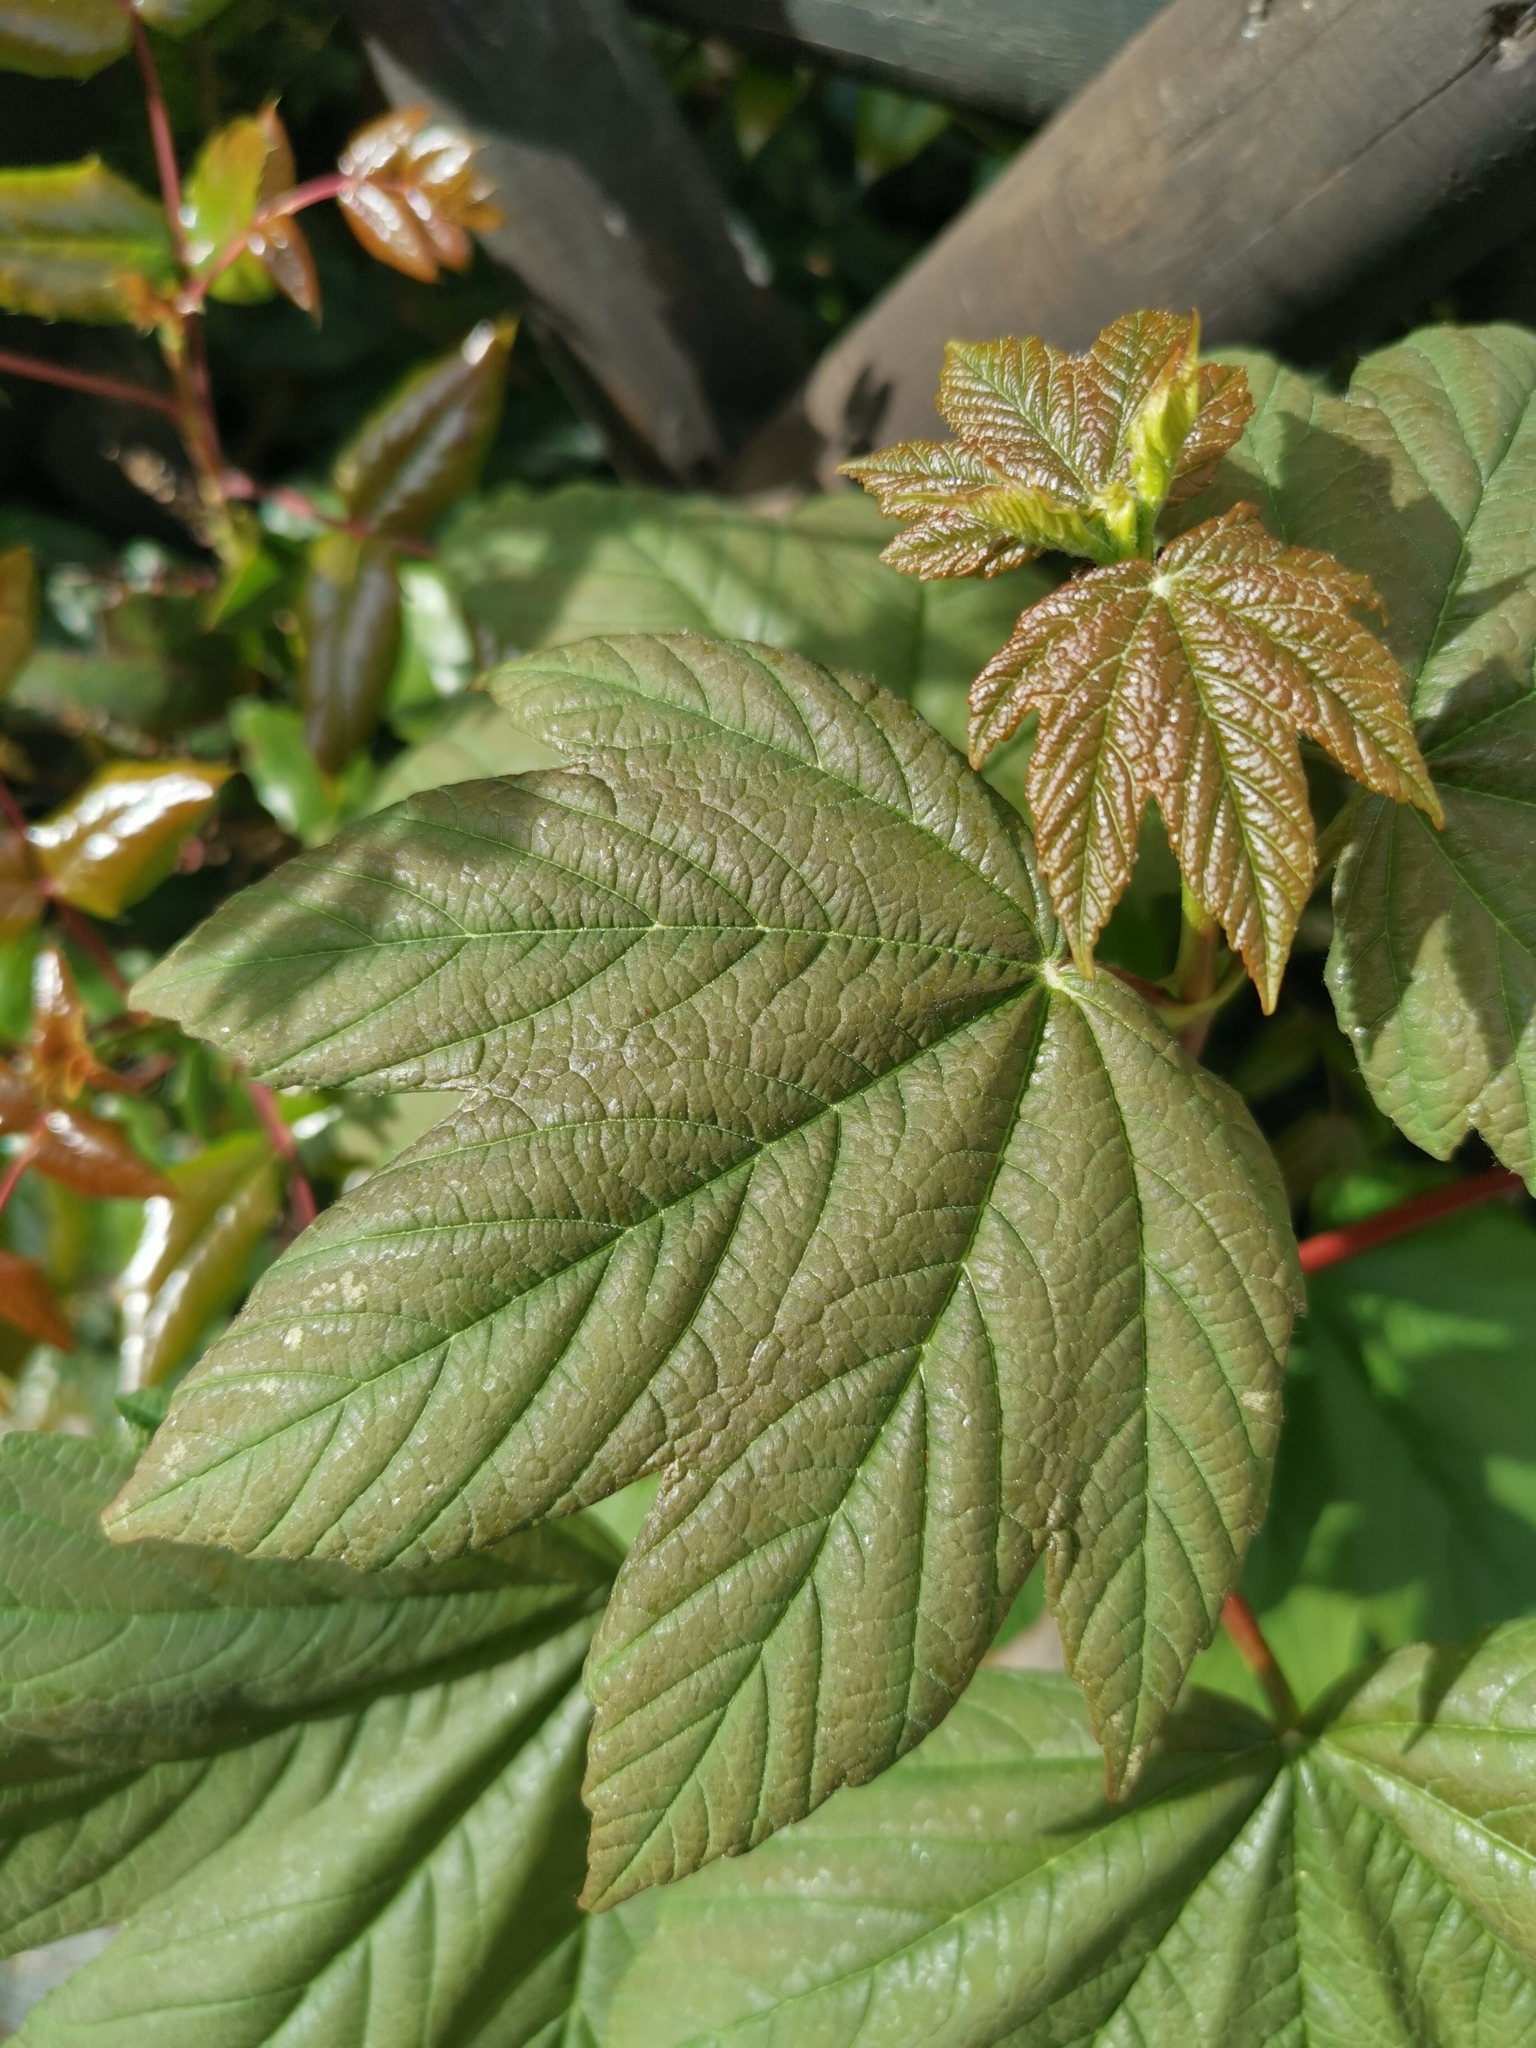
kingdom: Plantae
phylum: Tracheophyta
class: Magnoliopsida
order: Sapindales
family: Sapindaceae
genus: Acer
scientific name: Acer pseudoplatanus
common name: Sycamore
